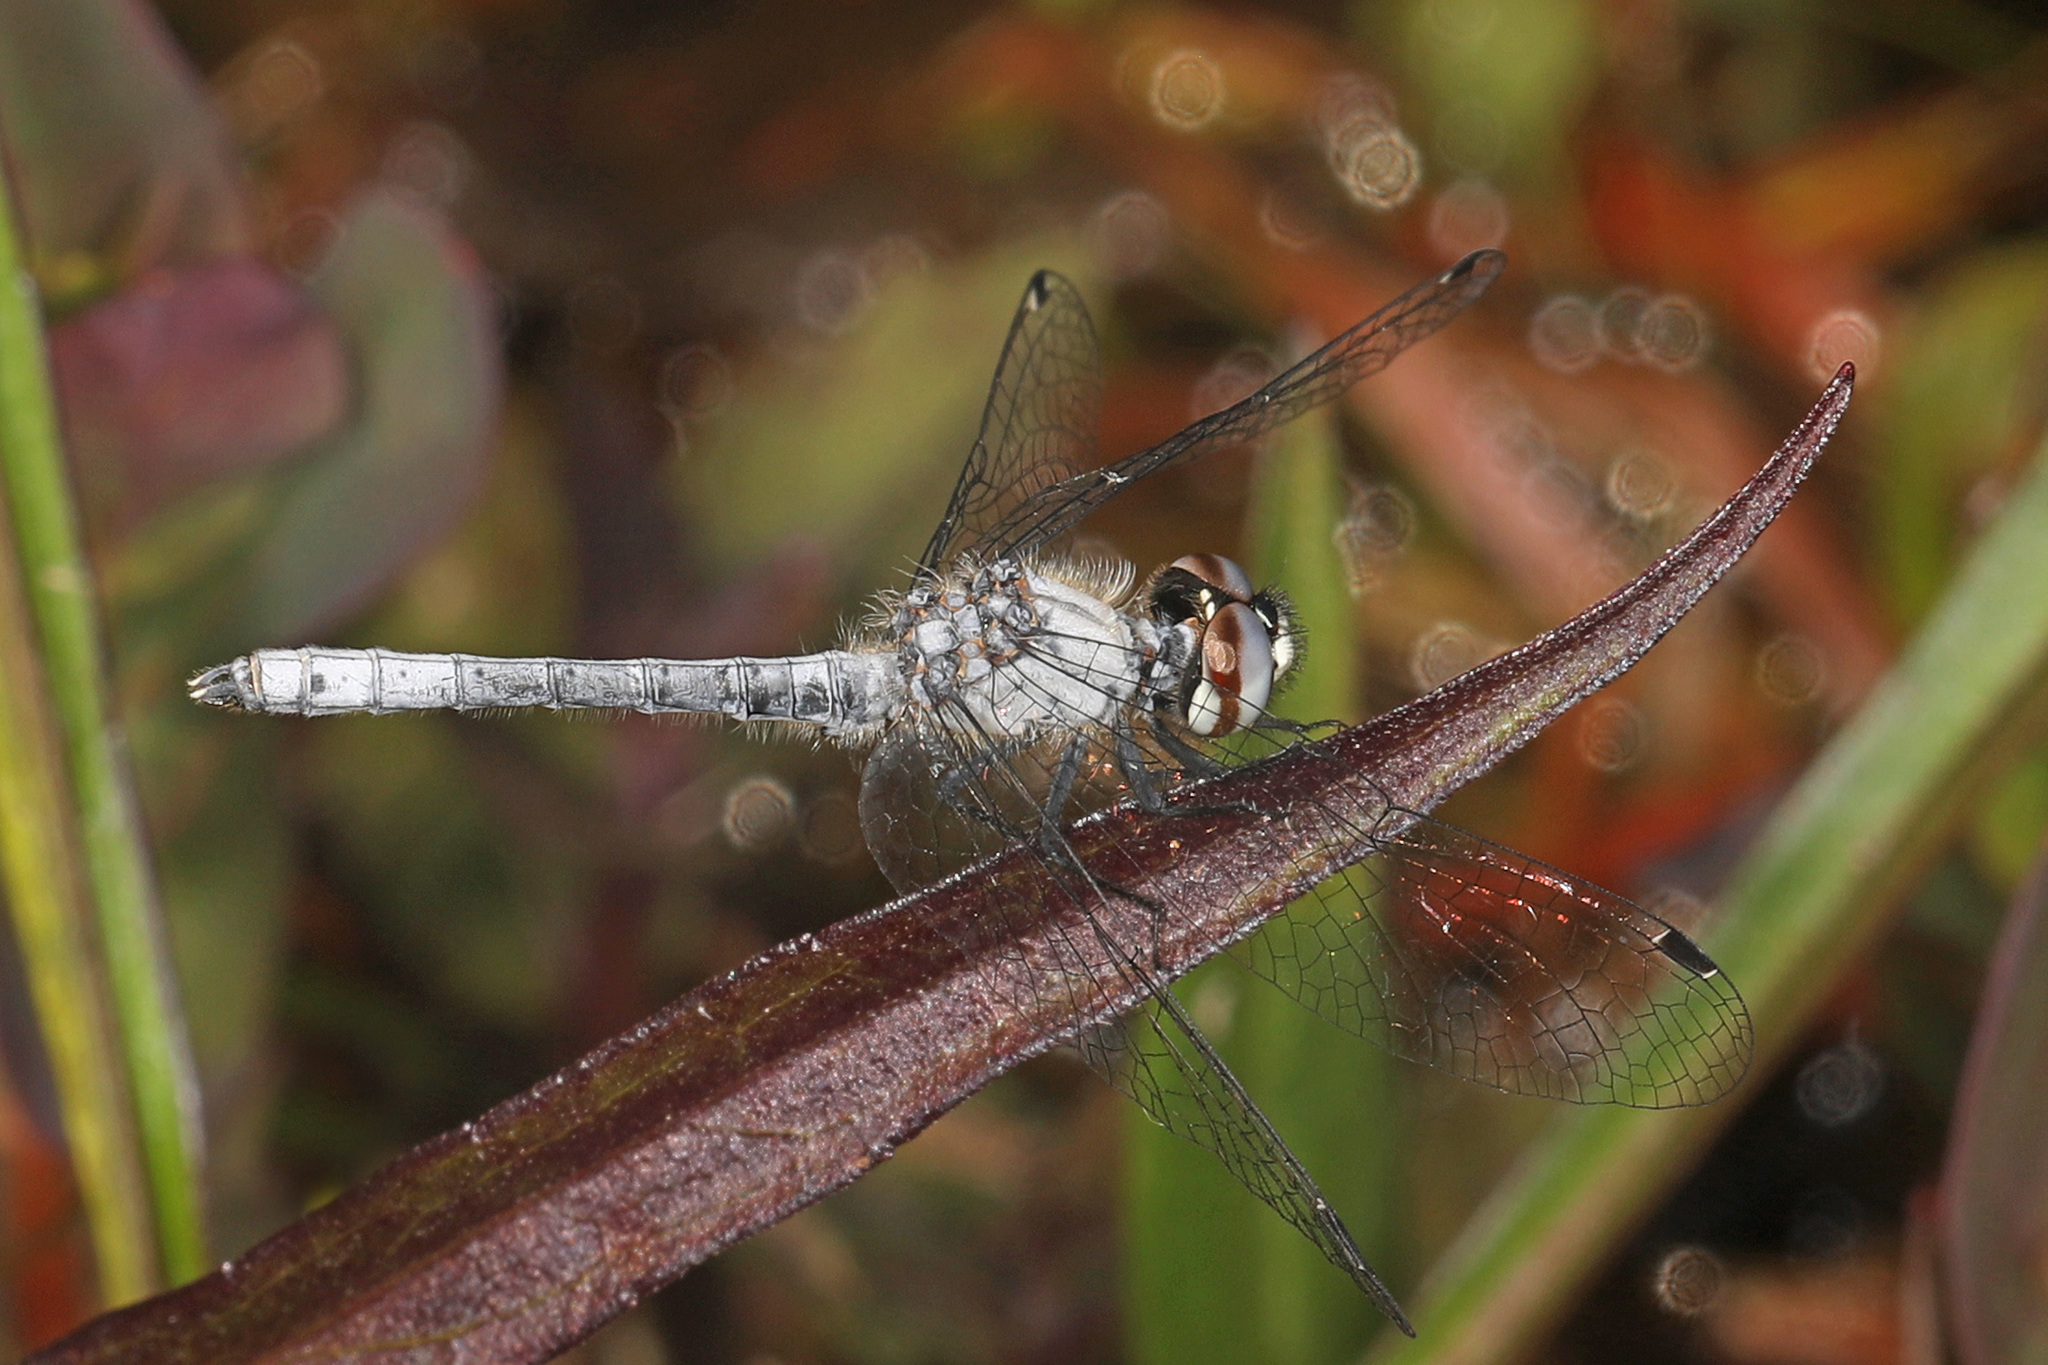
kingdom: Animalia
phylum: Arthropoda
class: Insecta
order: Odonata
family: Libellulidae
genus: Nannothemis
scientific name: Nannothemis bella
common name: Elfin skimmer
